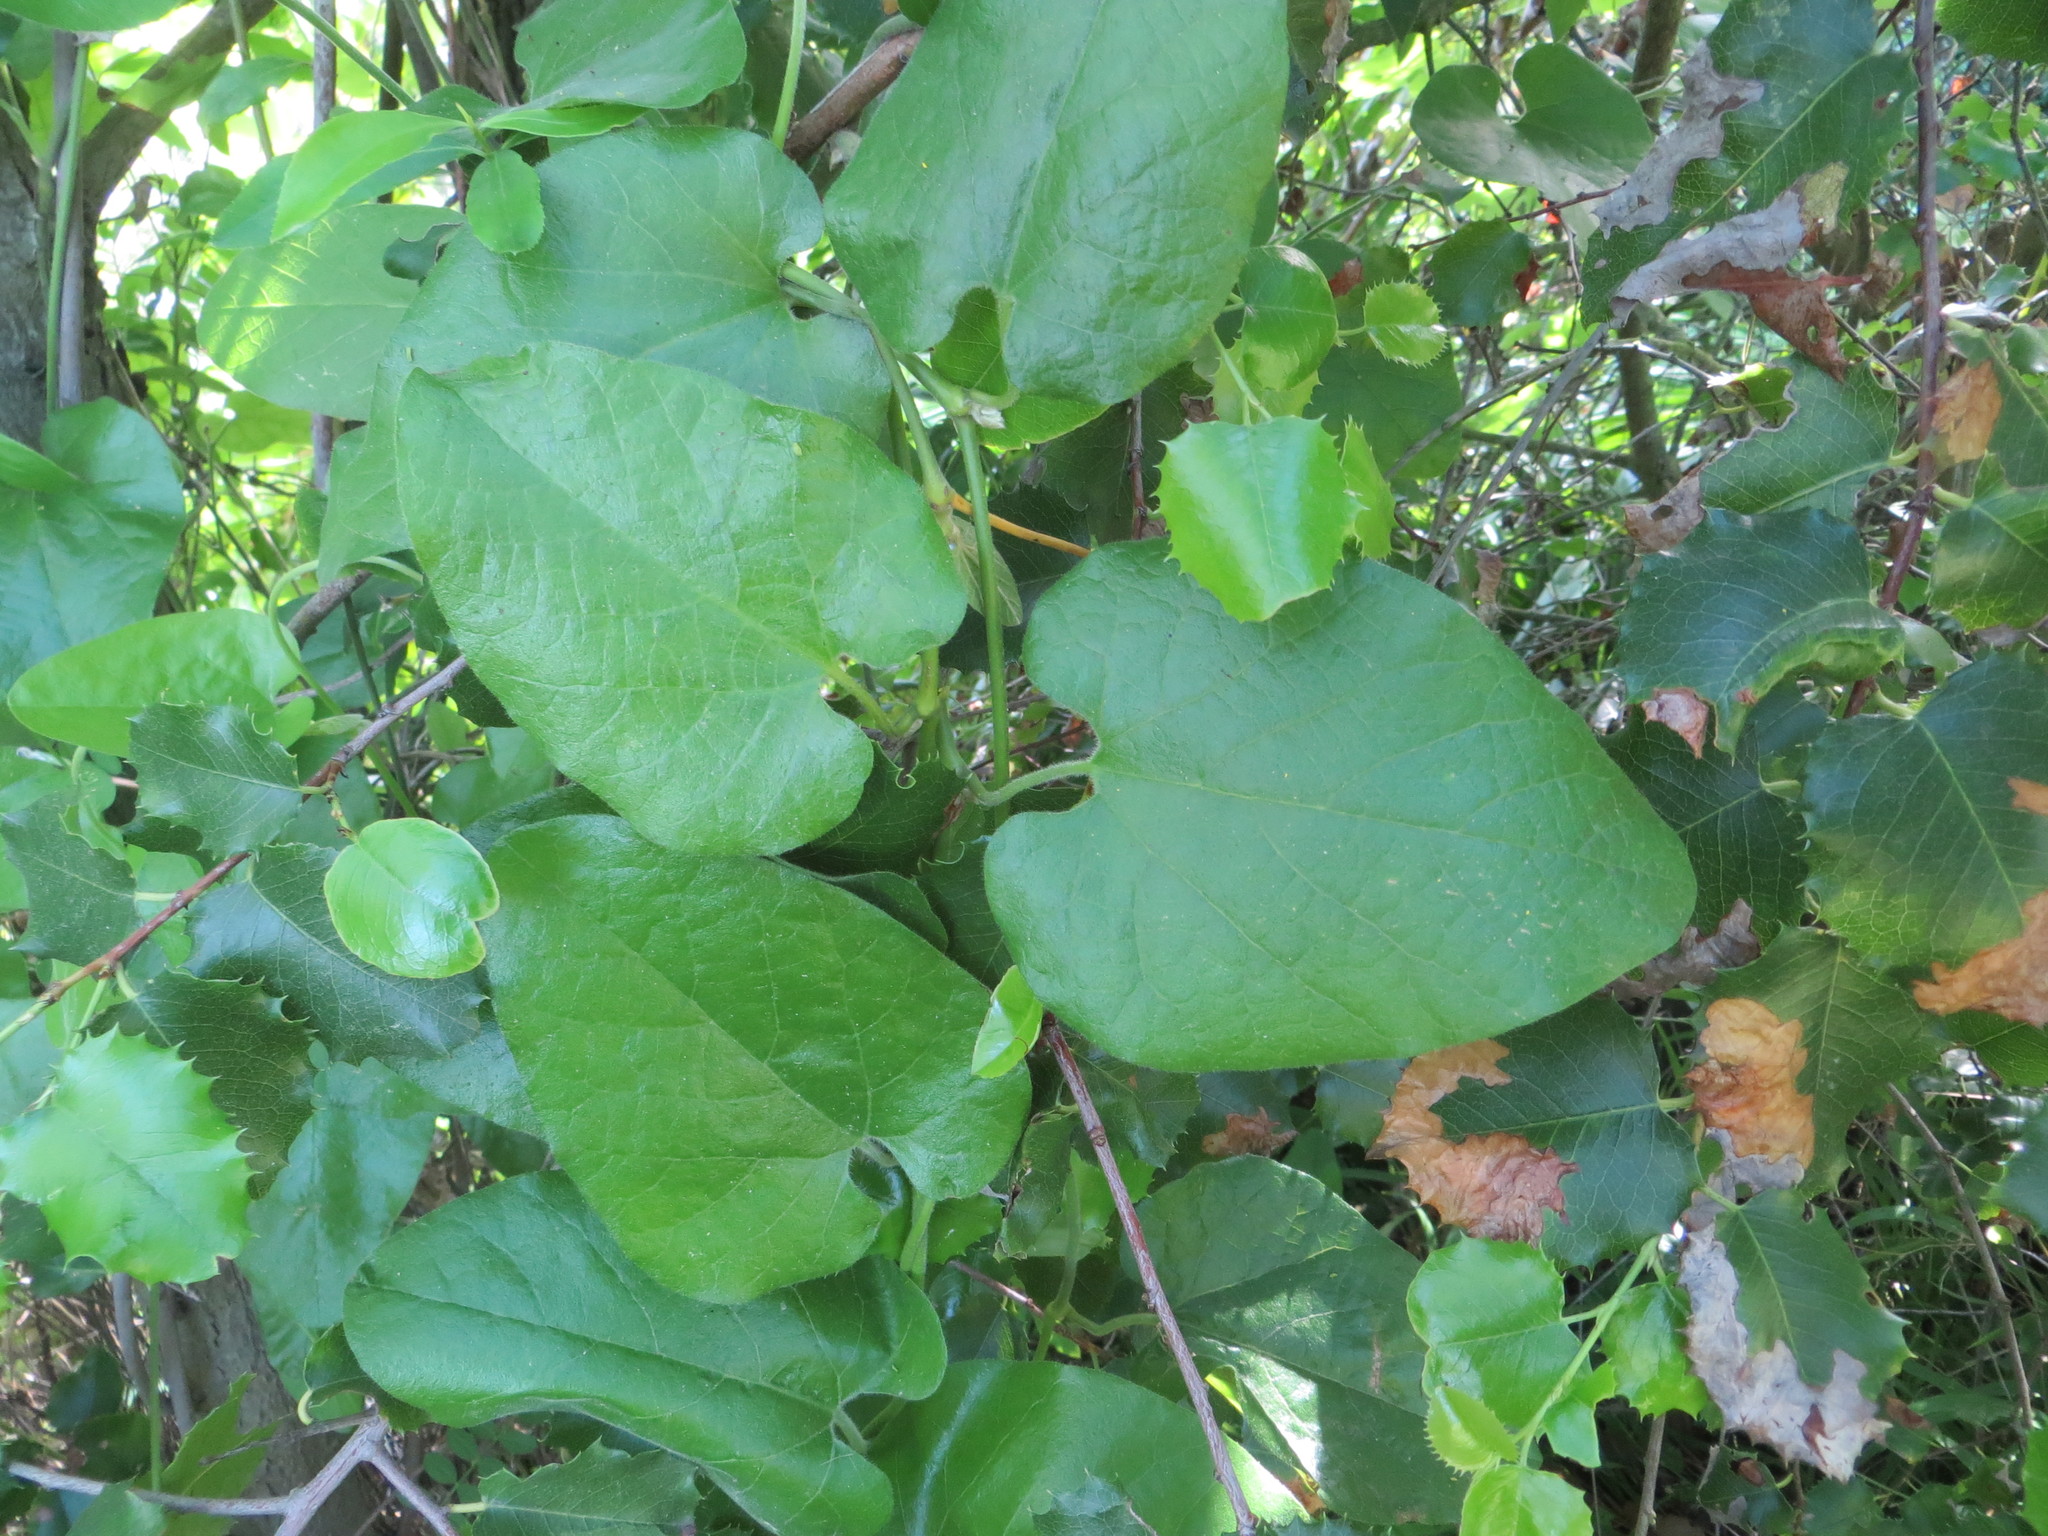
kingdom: Plantae
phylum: Tracheophyta
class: Magnoliopsida
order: Piperales
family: Aristolochiaceae
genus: Isotrema
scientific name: Isotrema californicum
